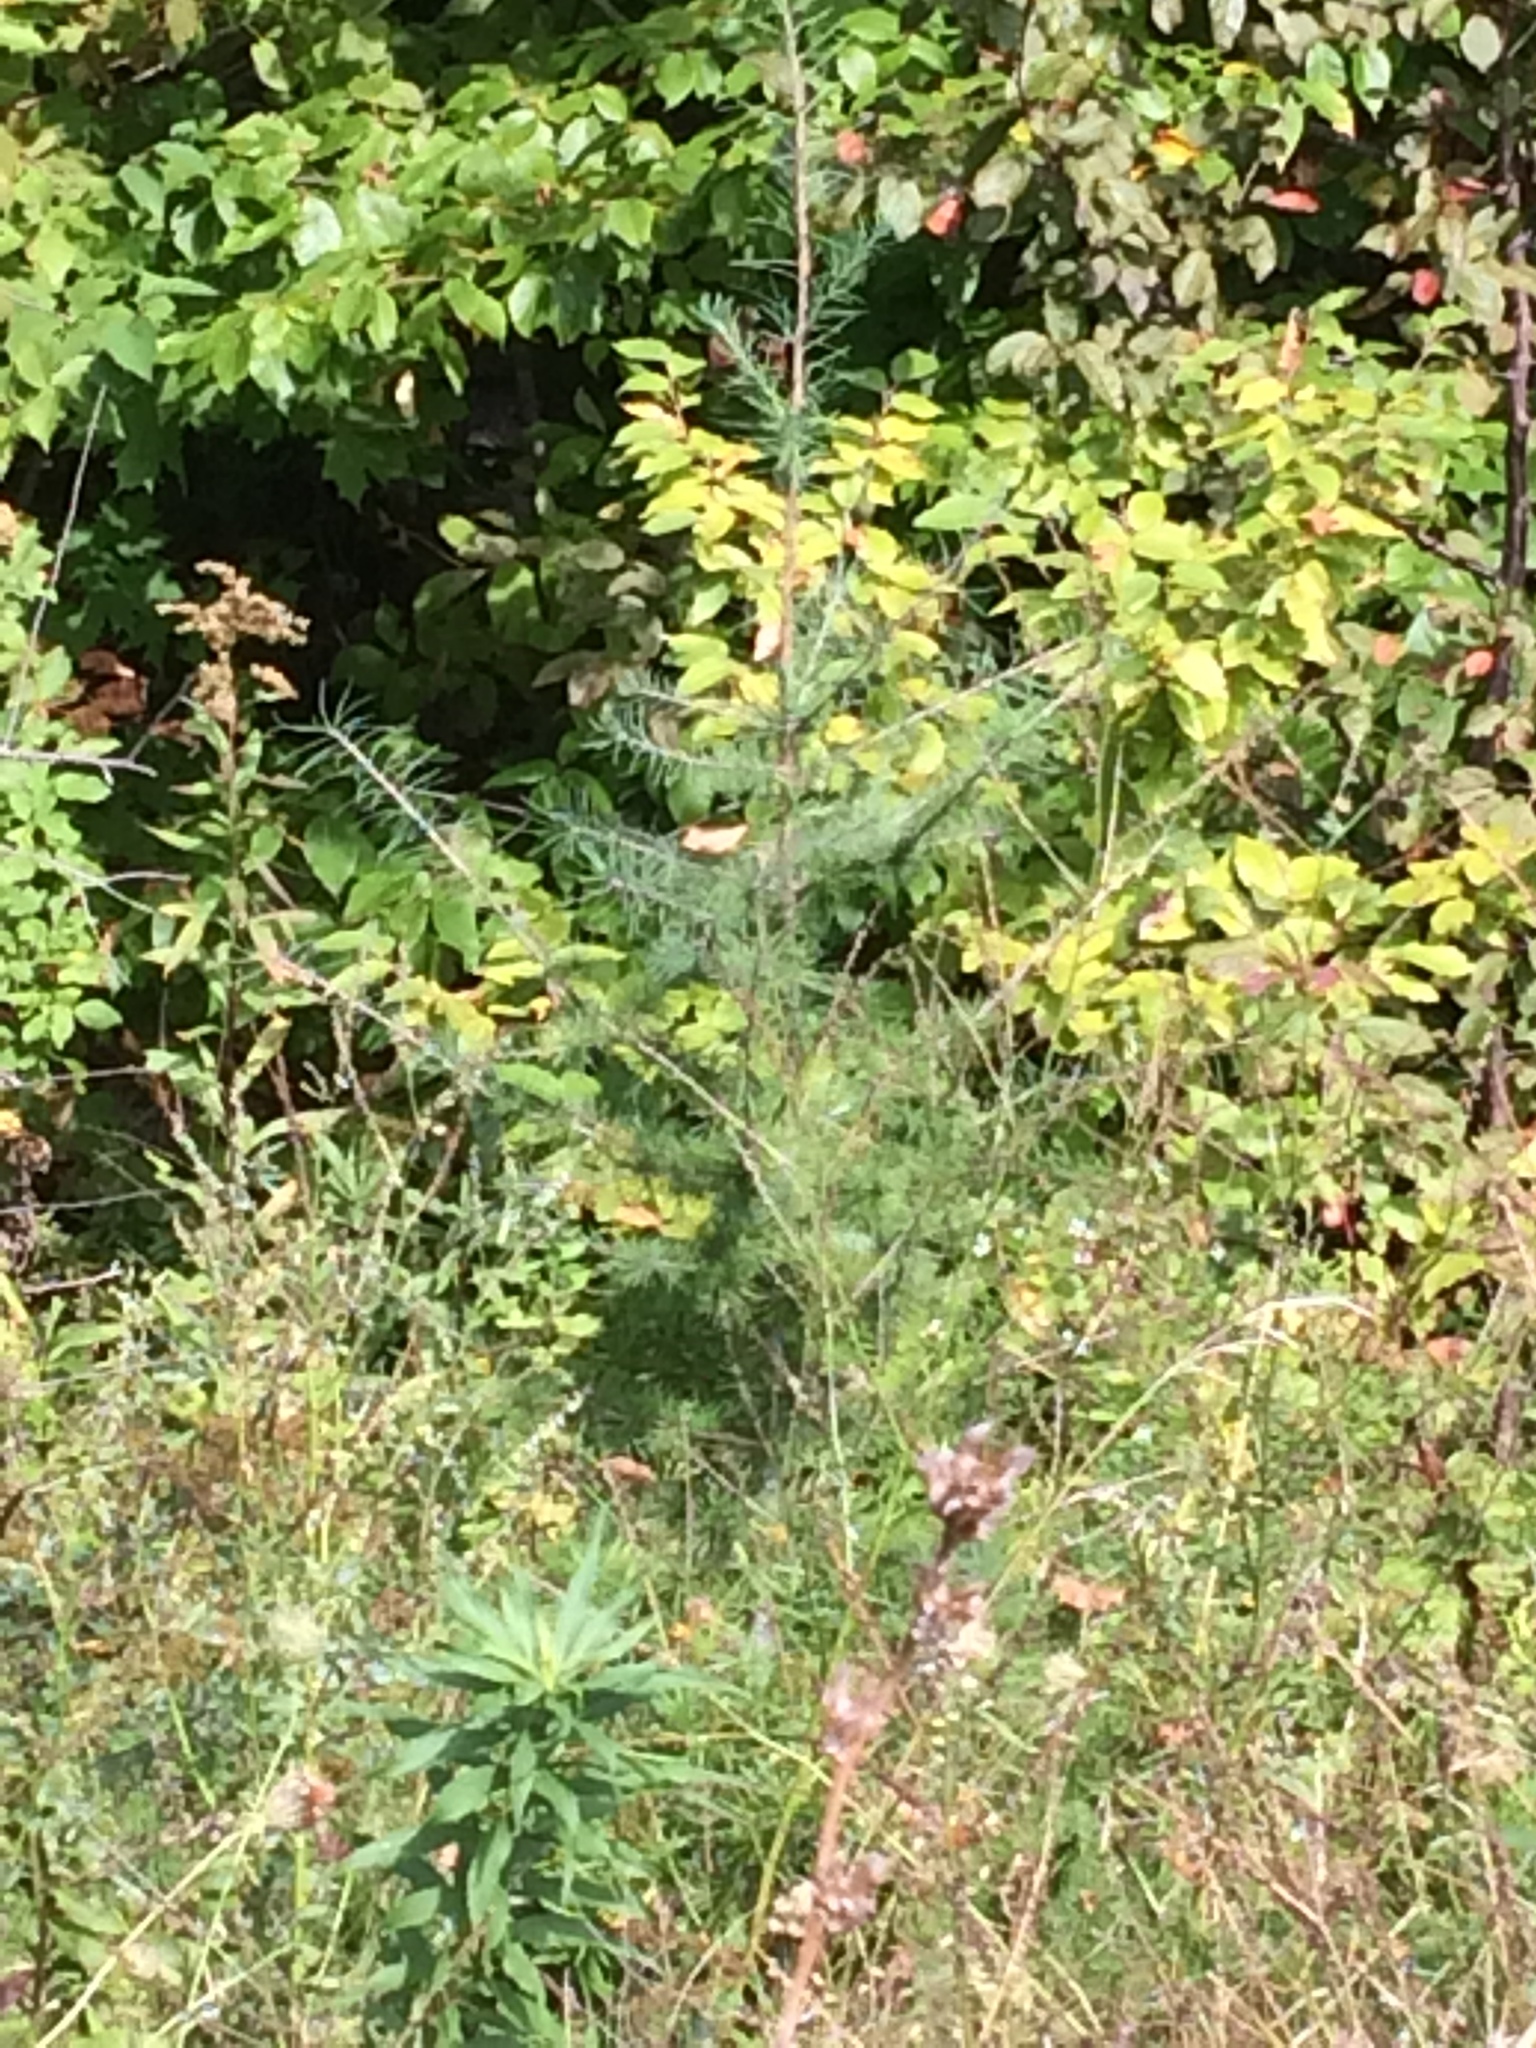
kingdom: Plantae
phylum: Tracheophyta
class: Pinopsida
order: Pinales
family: Pinaceae
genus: Larix
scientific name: Larix laricina
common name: American larch
